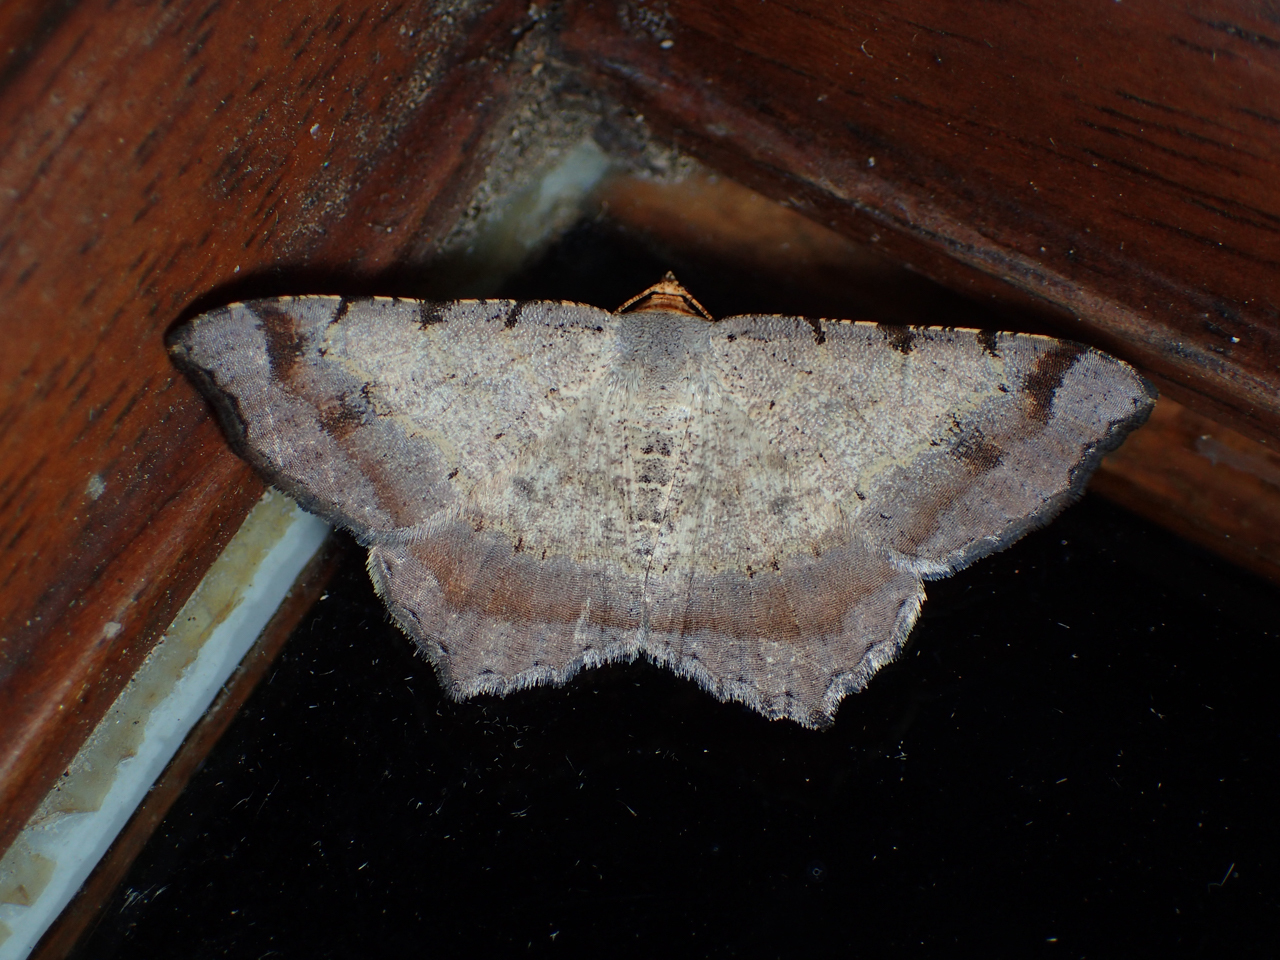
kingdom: Animalia
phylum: Arthropoda
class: Insecta
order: Lepidoptera
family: Geometridae
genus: Macaria
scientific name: Macaria bisignata
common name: Red-headed inchworm
